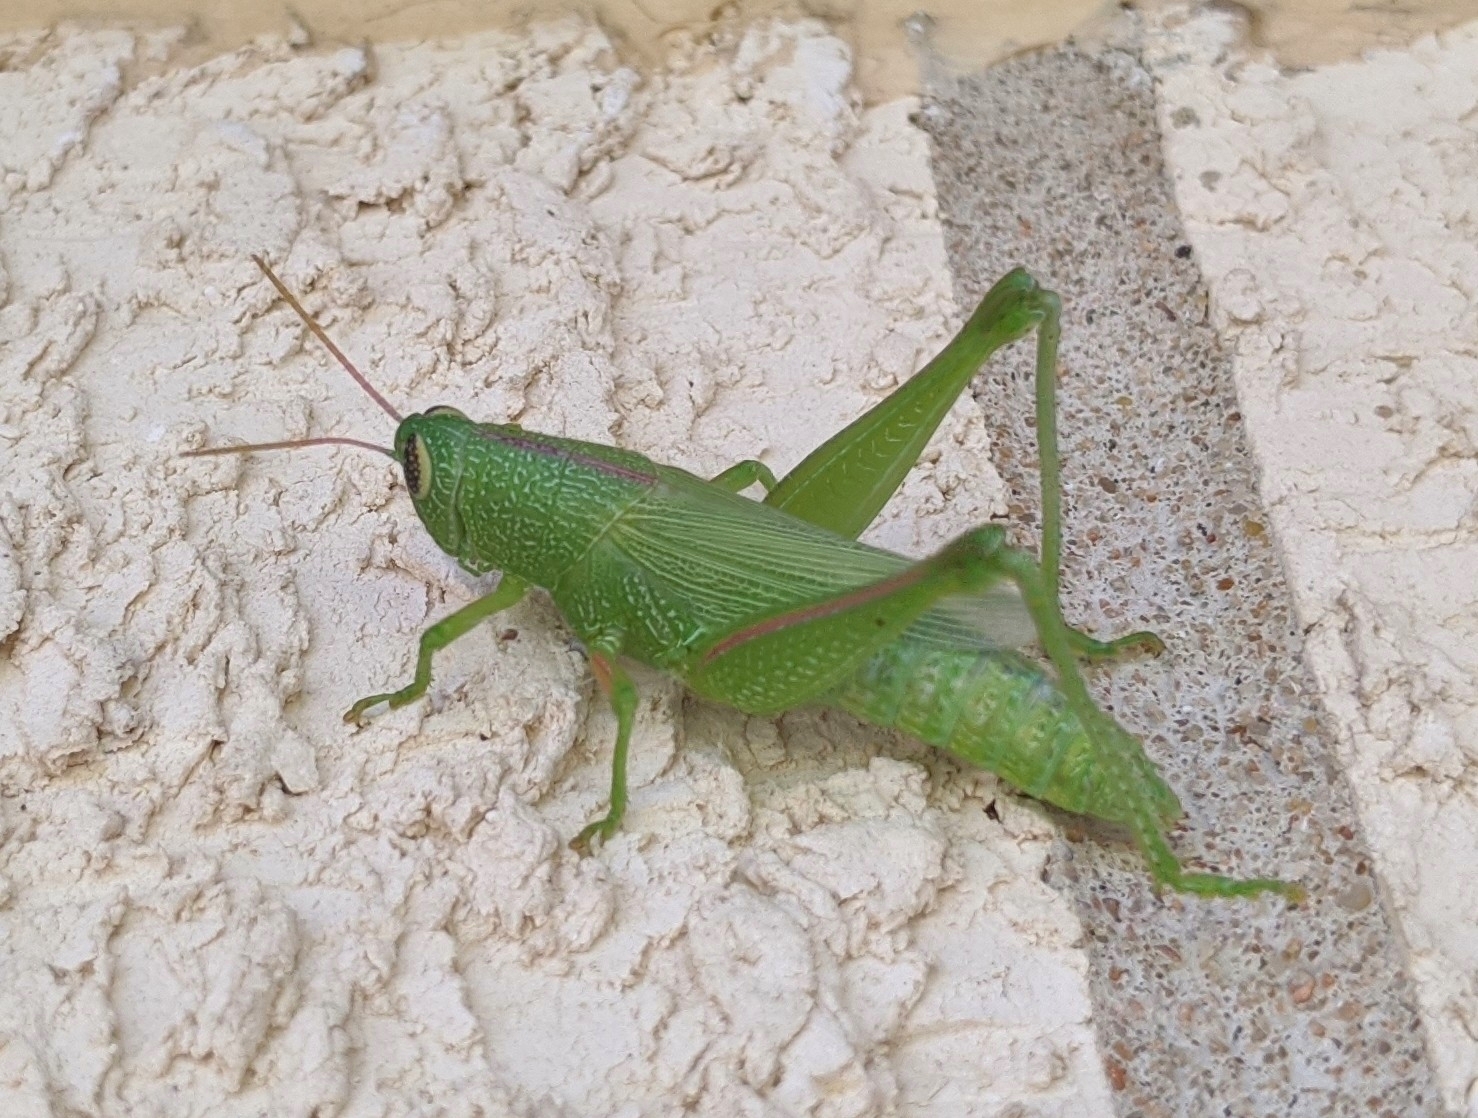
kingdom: Animalia
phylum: Arthropoda
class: Insecta
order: Orthoptera
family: Acrididae
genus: Hesperotettix
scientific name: Hesperotettix speciosus
